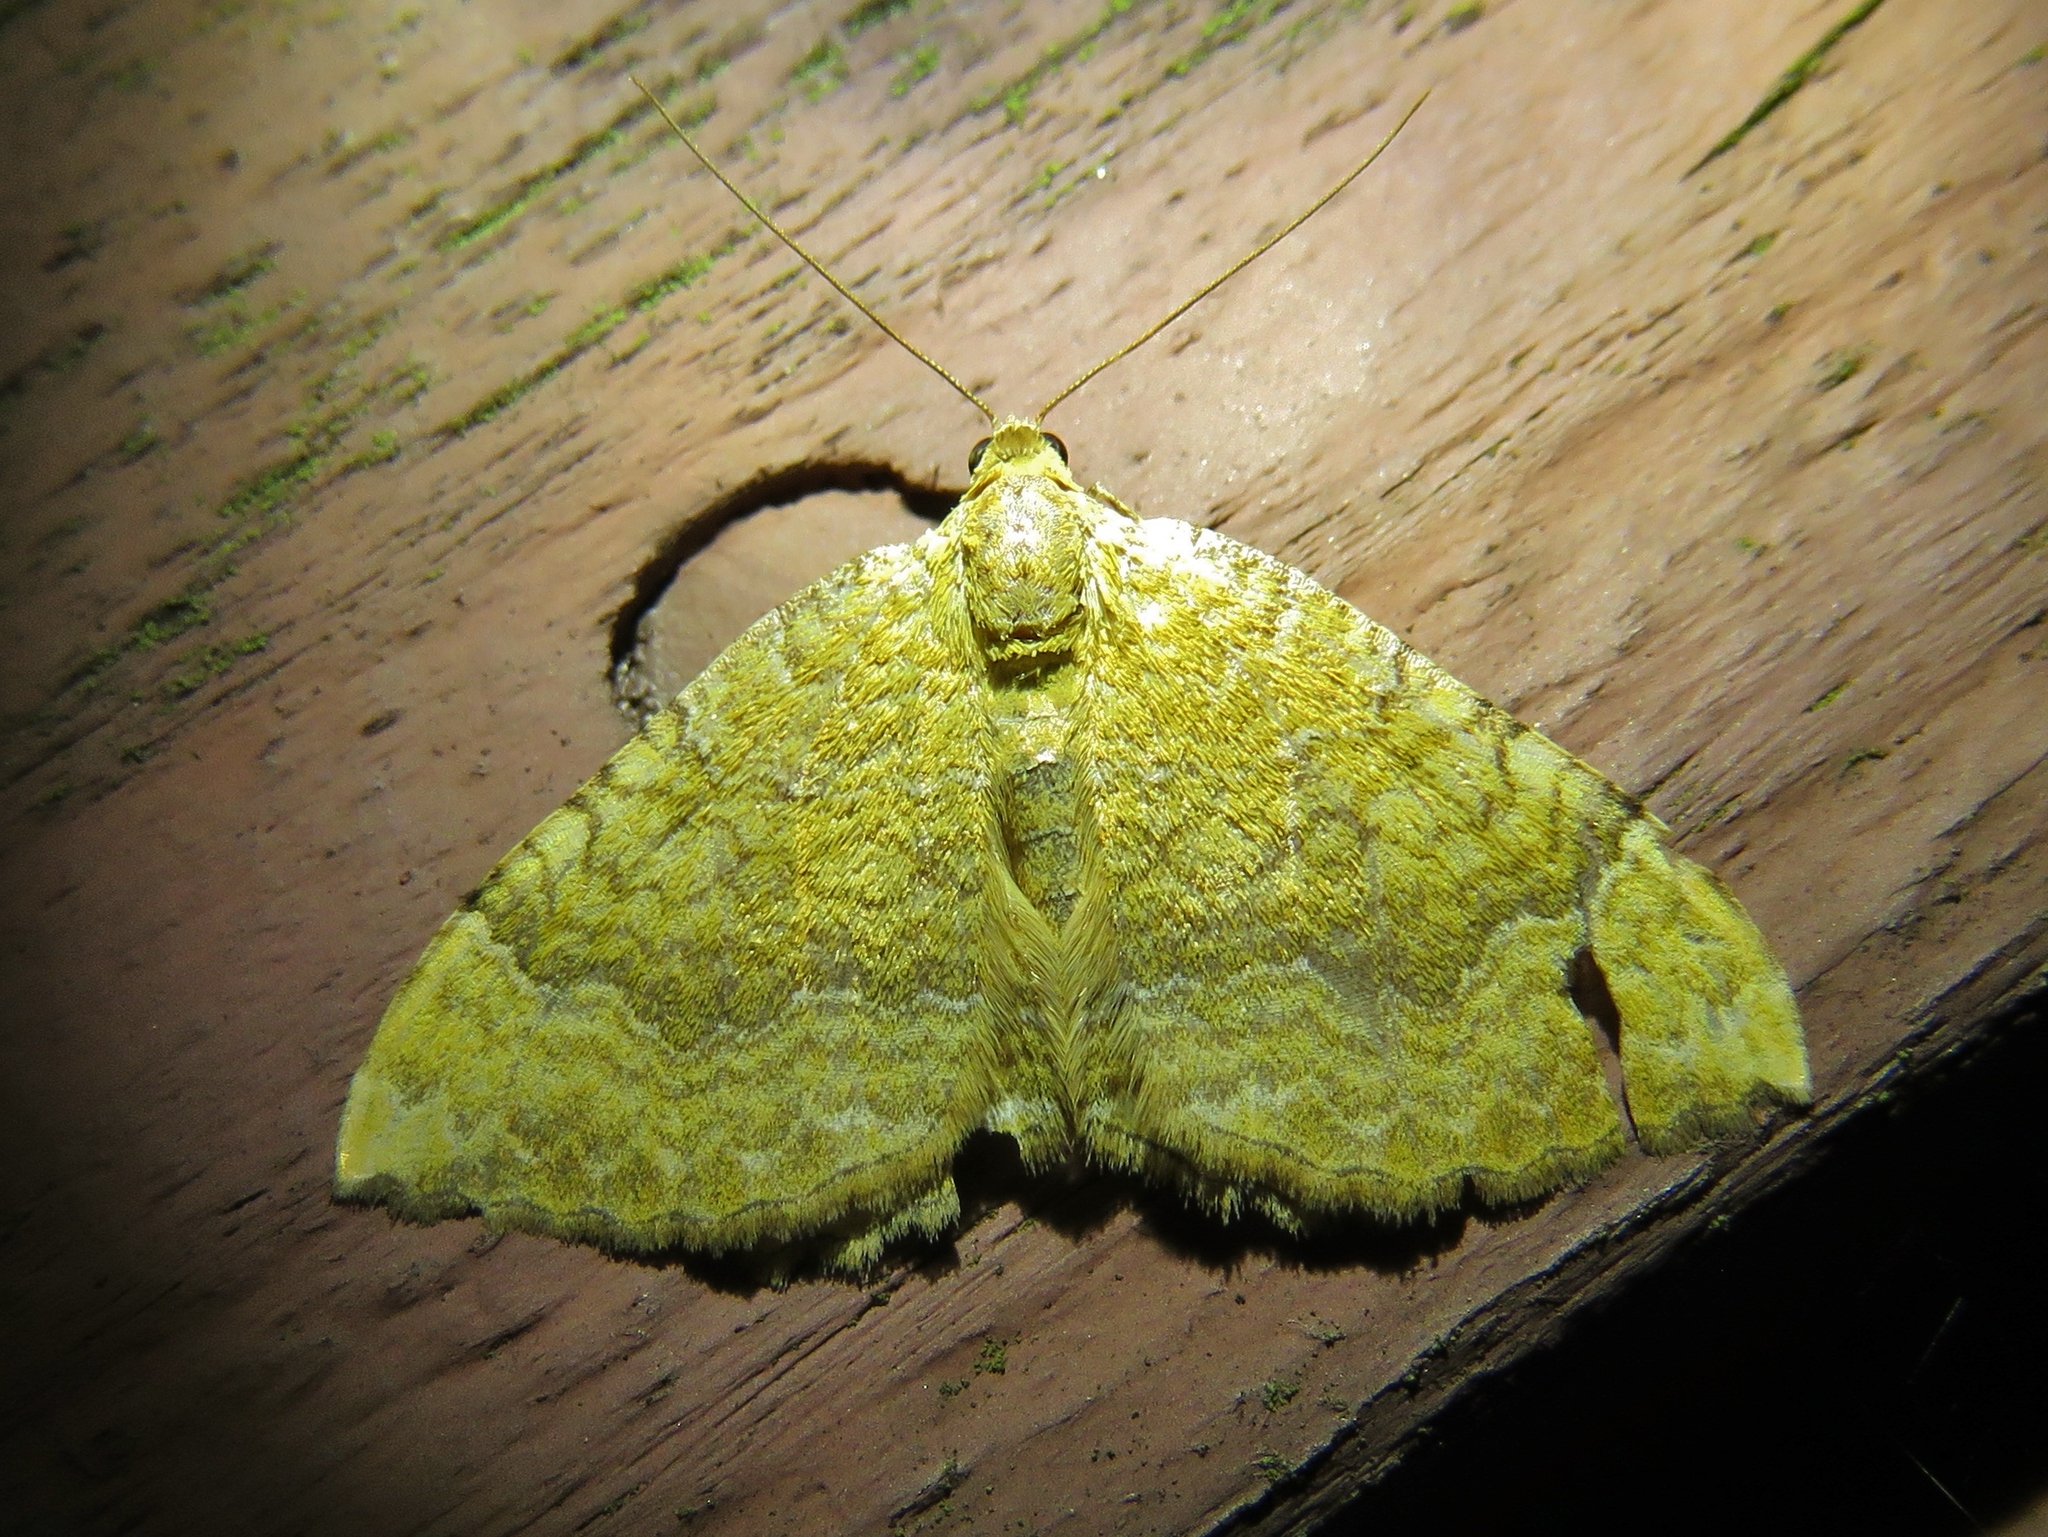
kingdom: Animalia
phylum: Arthropoda
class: Insecta
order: Lepidoptera
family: Geometridae
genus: Camptogramma
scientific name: Camptogramma bilineata
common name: Yellow shell
